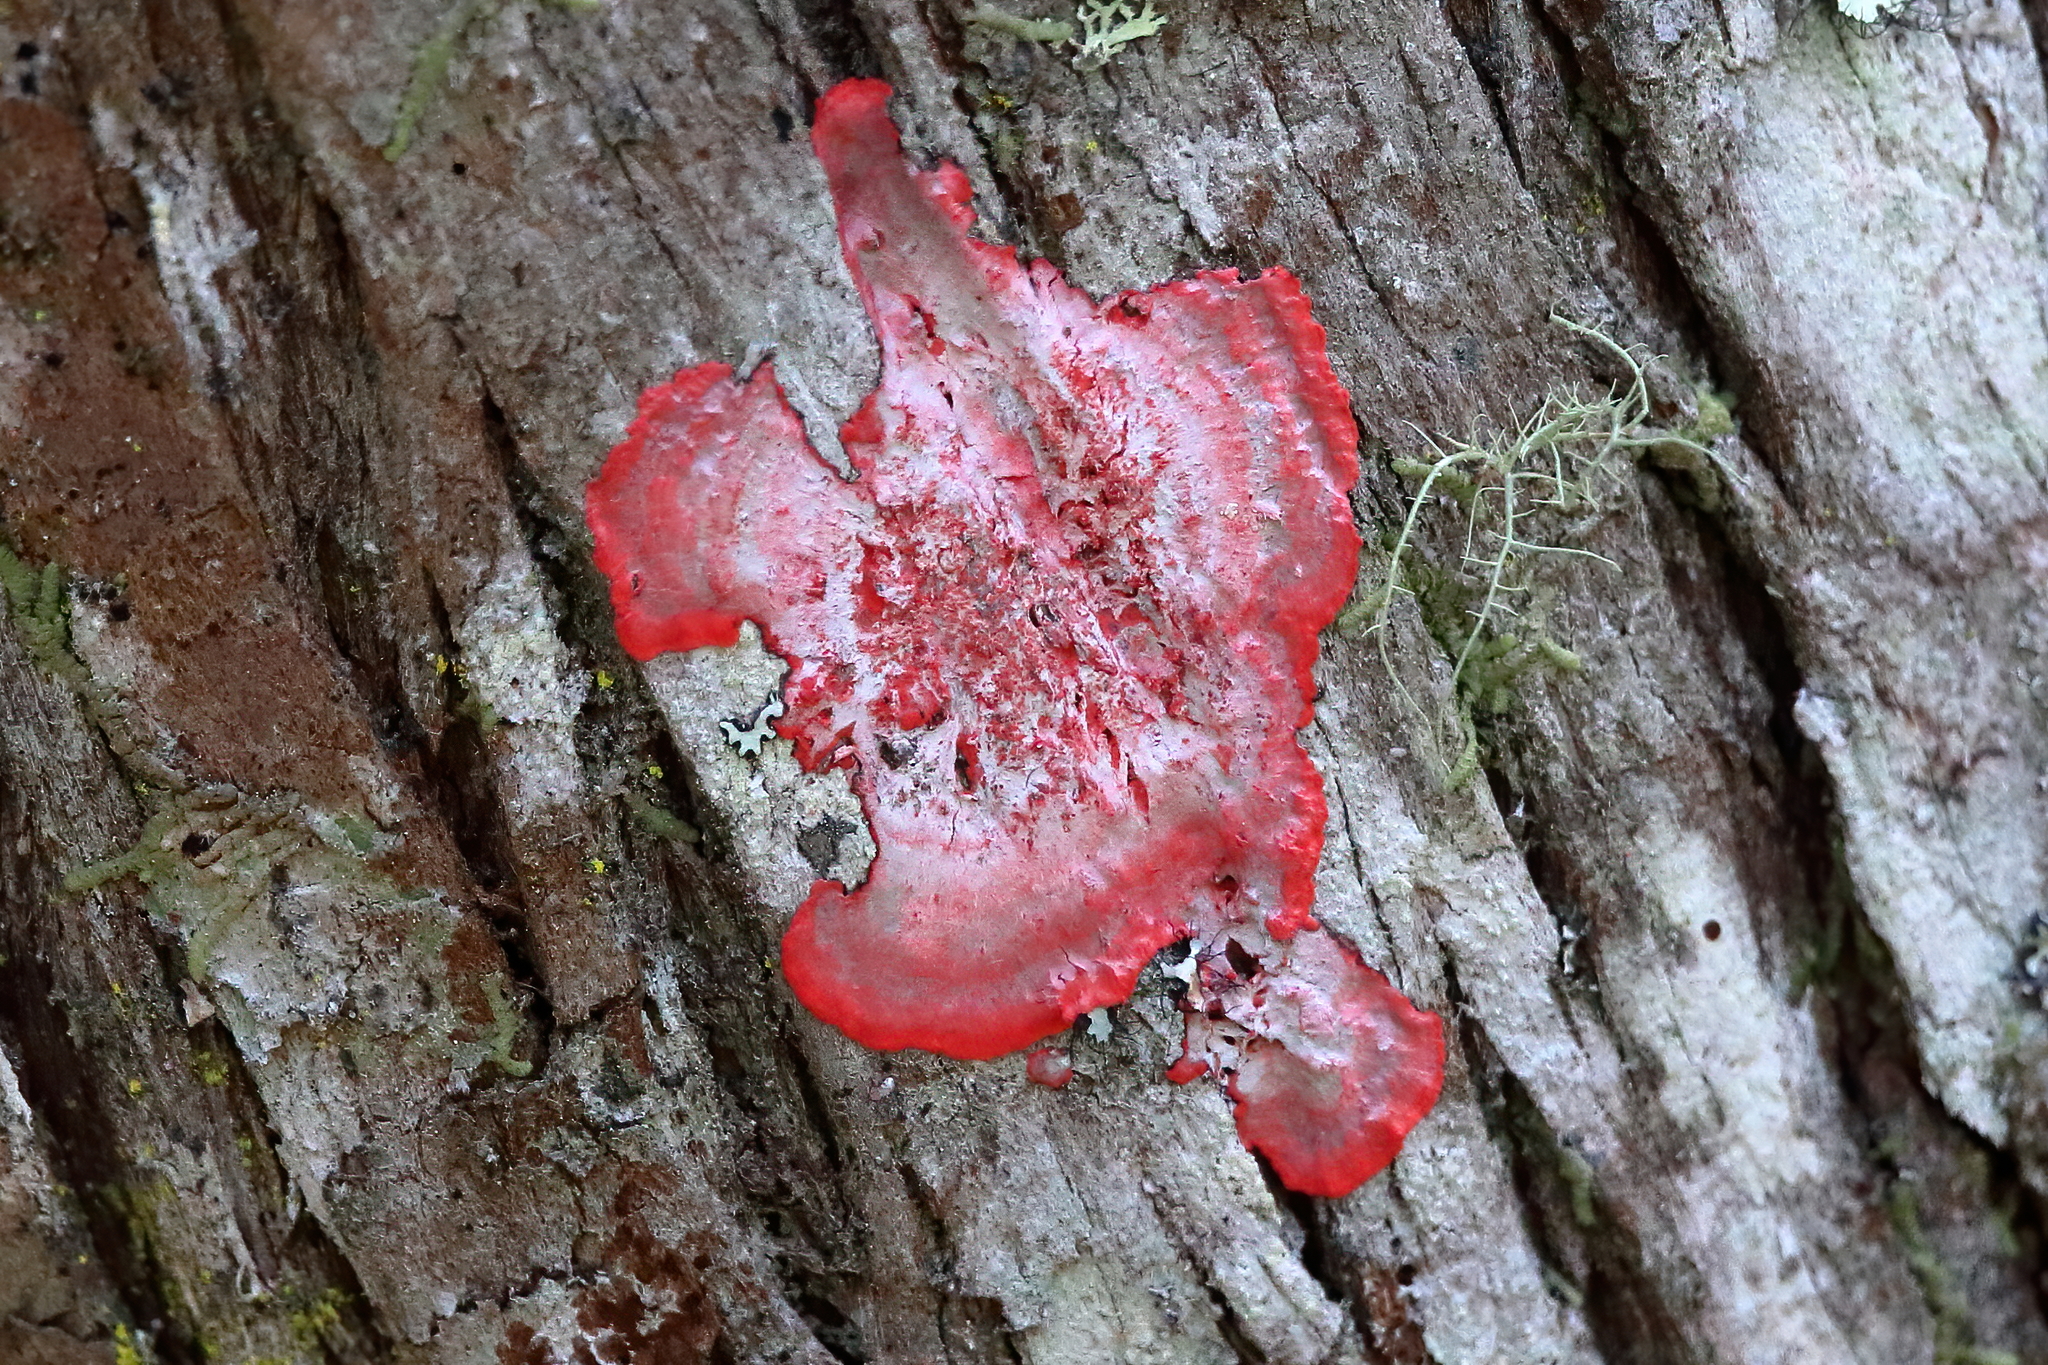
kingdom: Fungi
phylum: Ascomycota
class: Arthoniomycetes
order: Arthoniales
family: Arthoniaceae
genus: Herpothallon
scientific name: Herpothallon rubrocinctum
